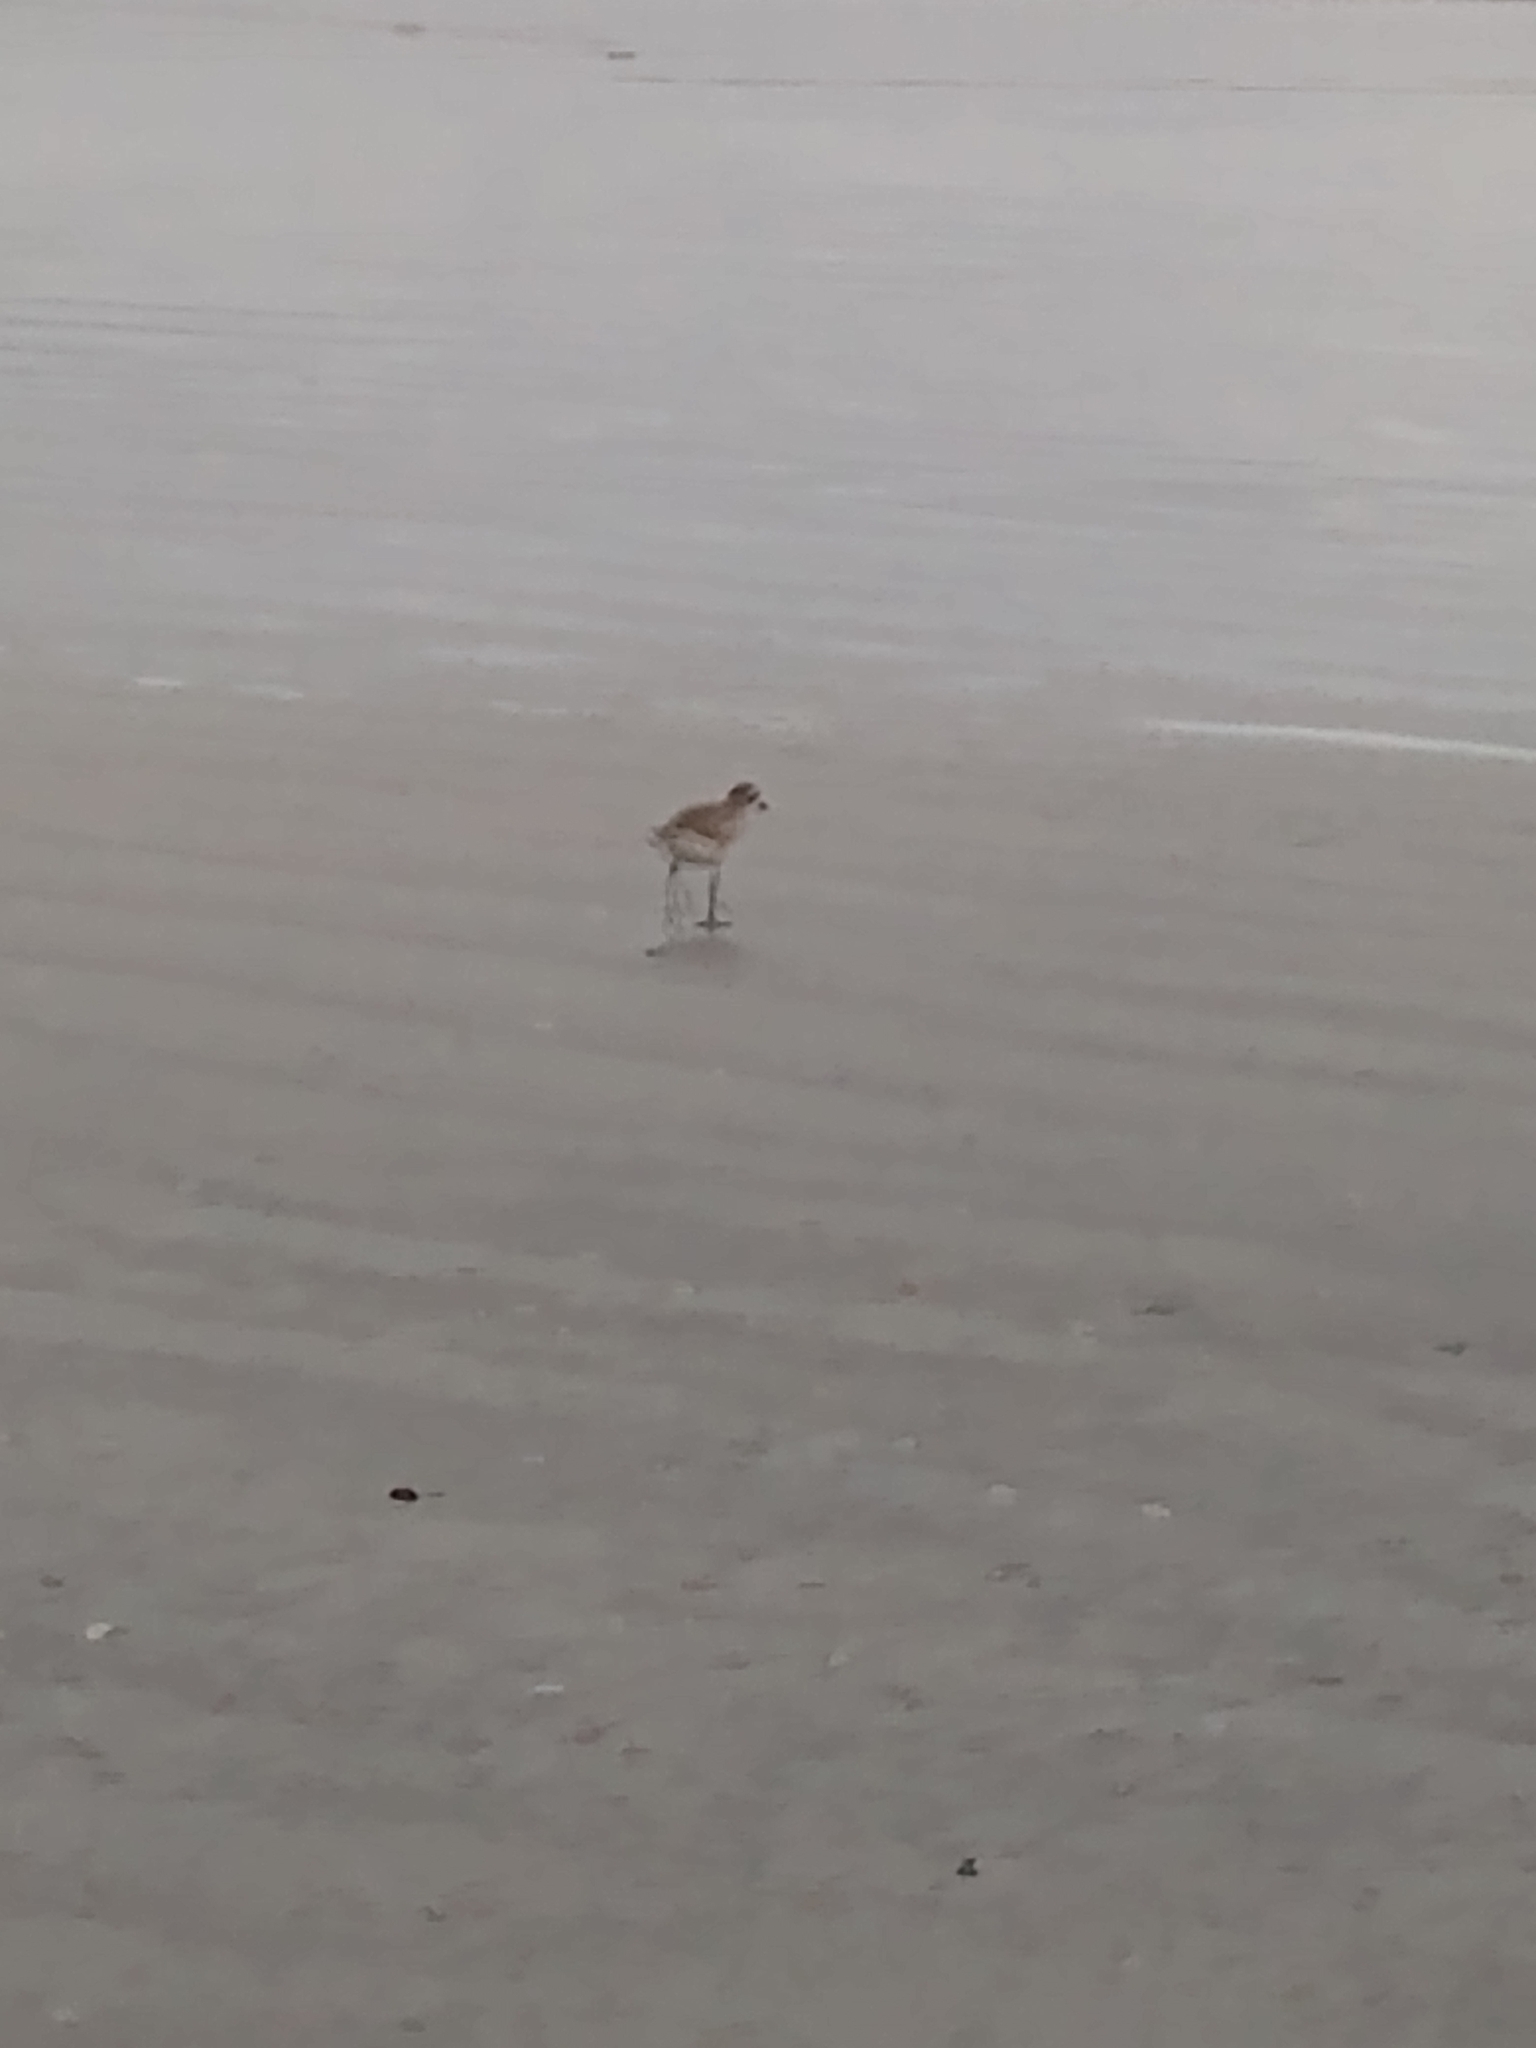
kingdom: Animalia
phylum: Chordata
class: Aves
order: Charadriiformes
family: Charadriidae
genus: Pluvialis
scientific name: Pluvialis squatarola
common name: Grey plover
